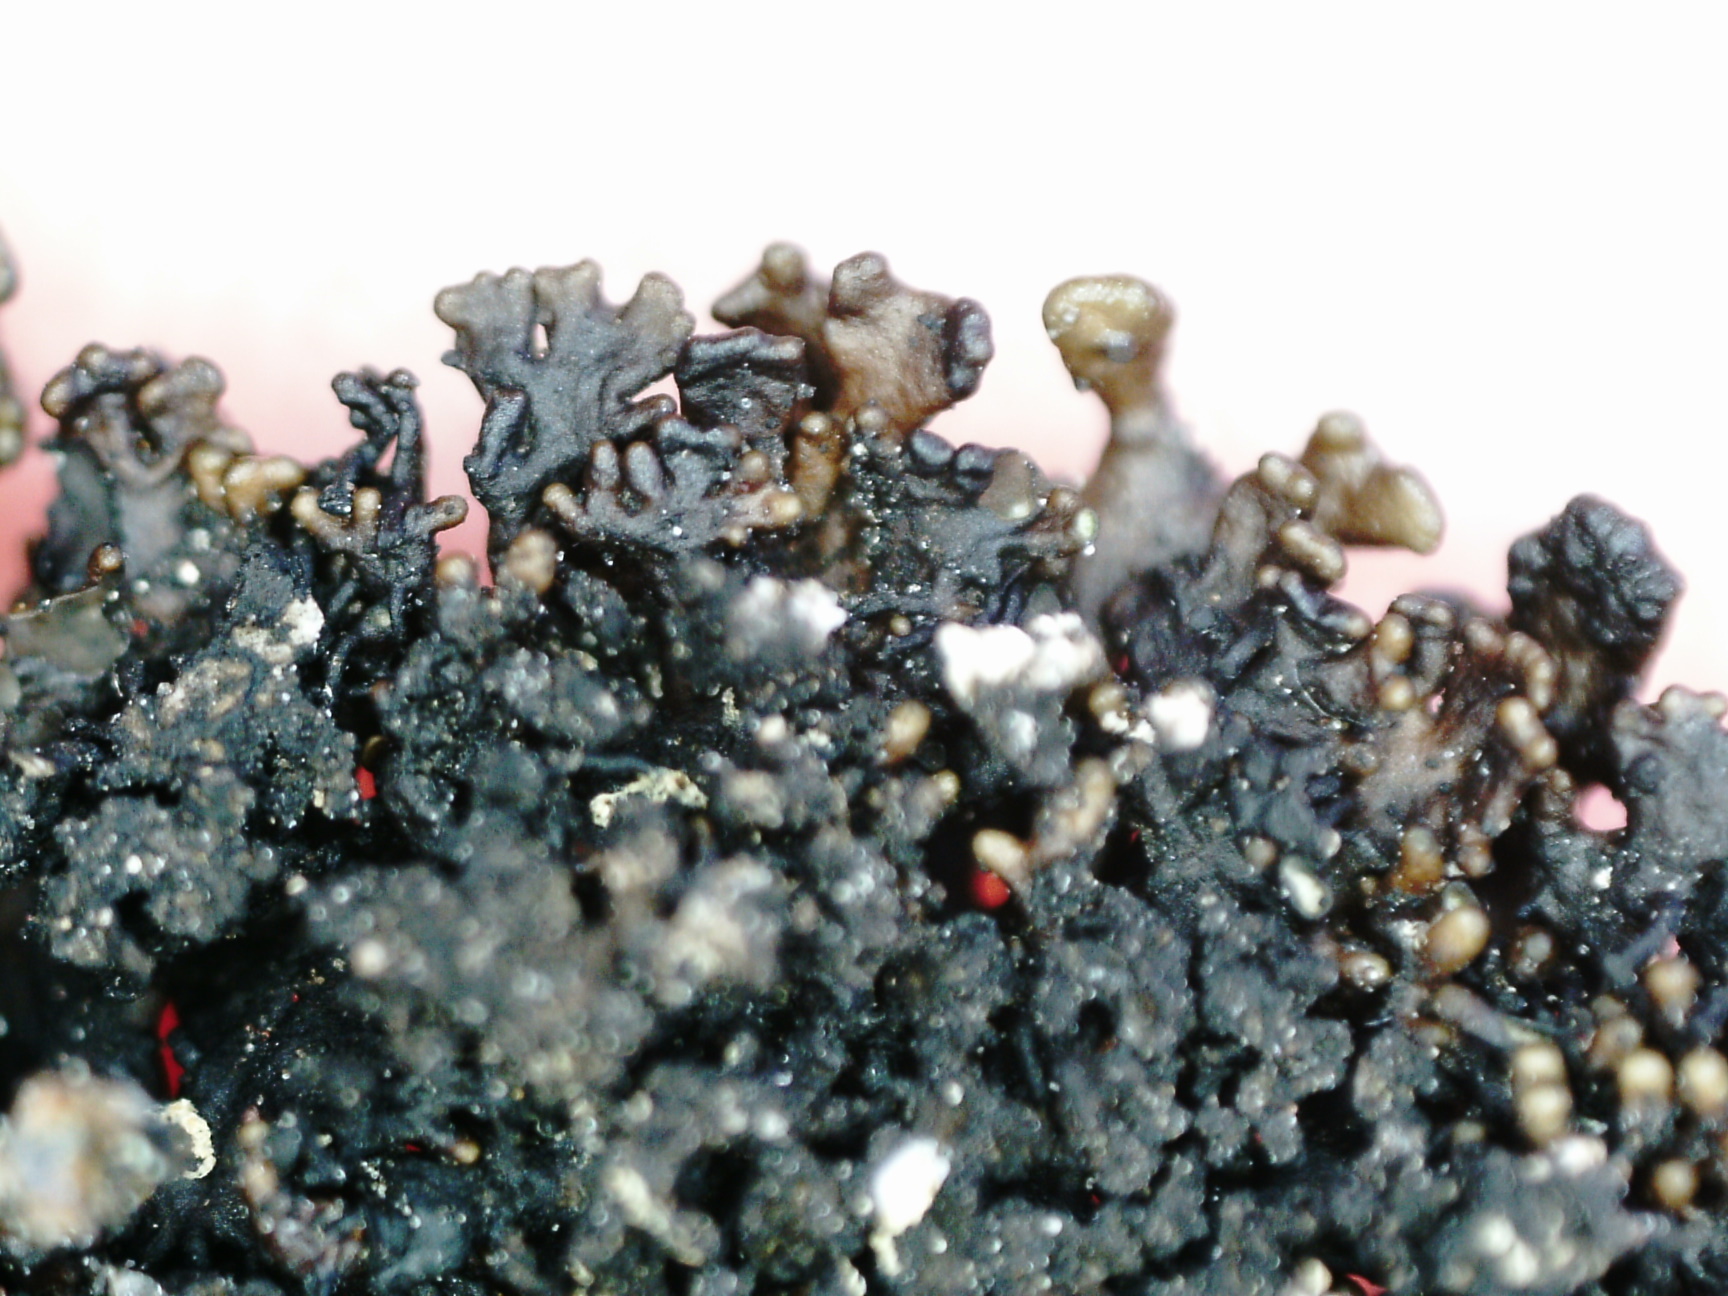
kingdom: Fungi
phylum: Ascomycota
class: Lecanoromycetes
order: Lecanorales
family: Parmeliaceae
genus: Melanelia
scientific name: Melanelia stygia
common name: Alpine camouflage lichen
